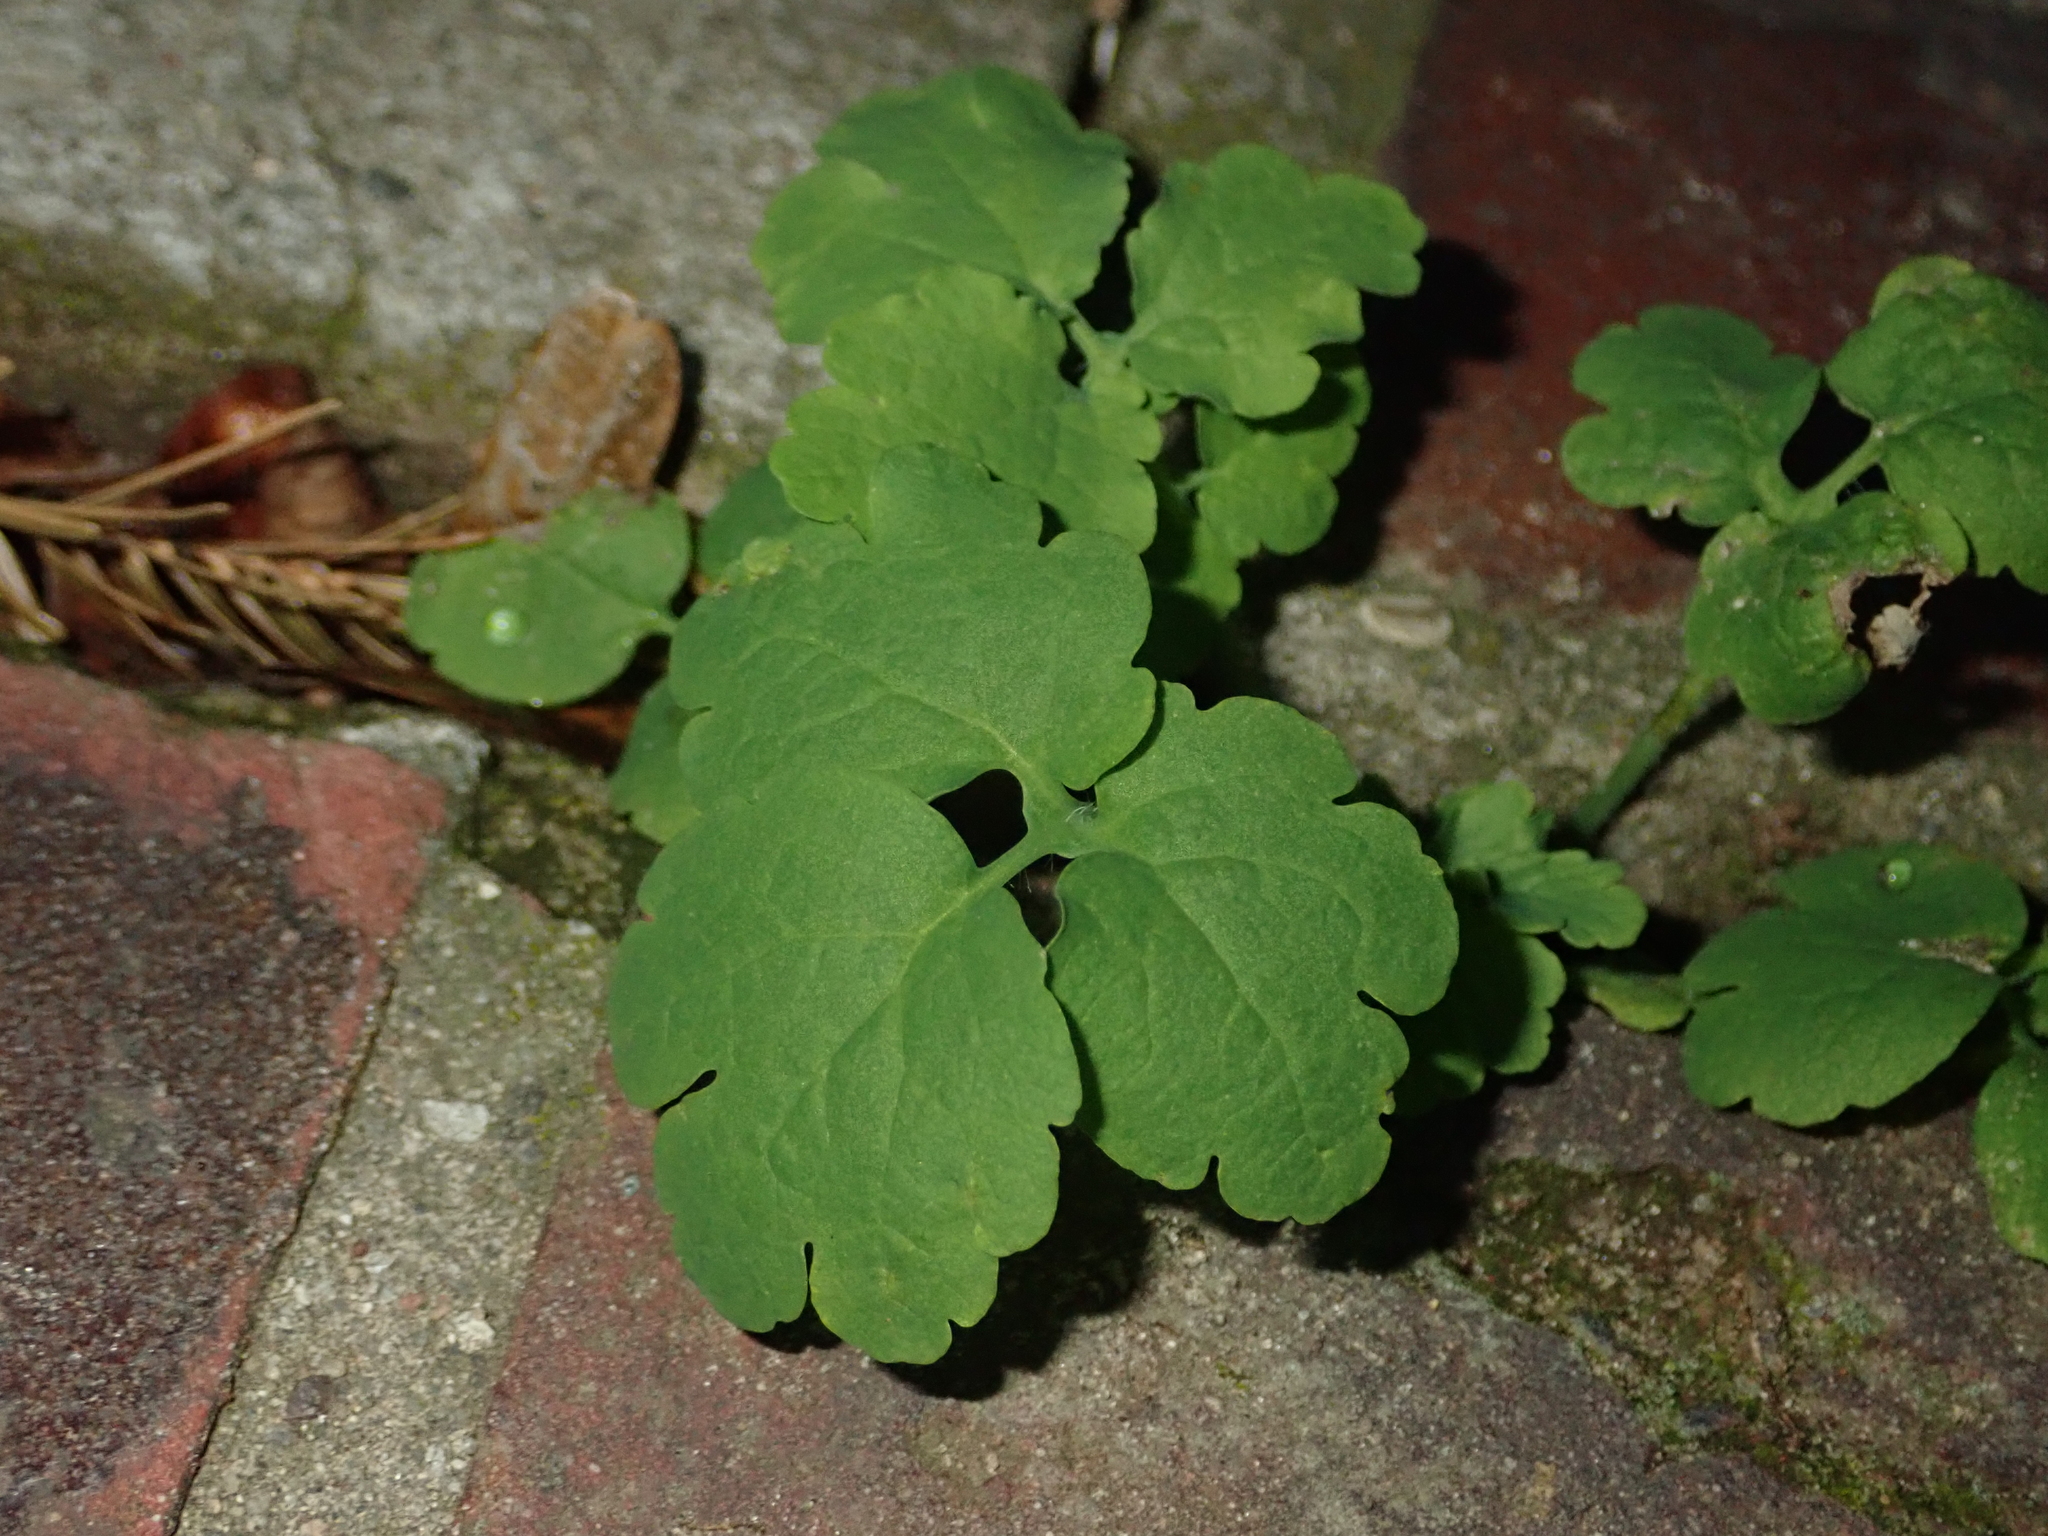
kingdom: Plantae
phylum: Tracheophyta
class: Magnoliopsida
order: Ranunculales
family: Papaveraceae
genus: Chelidonium
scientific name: Chelidonium majus
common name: Greater celandine
